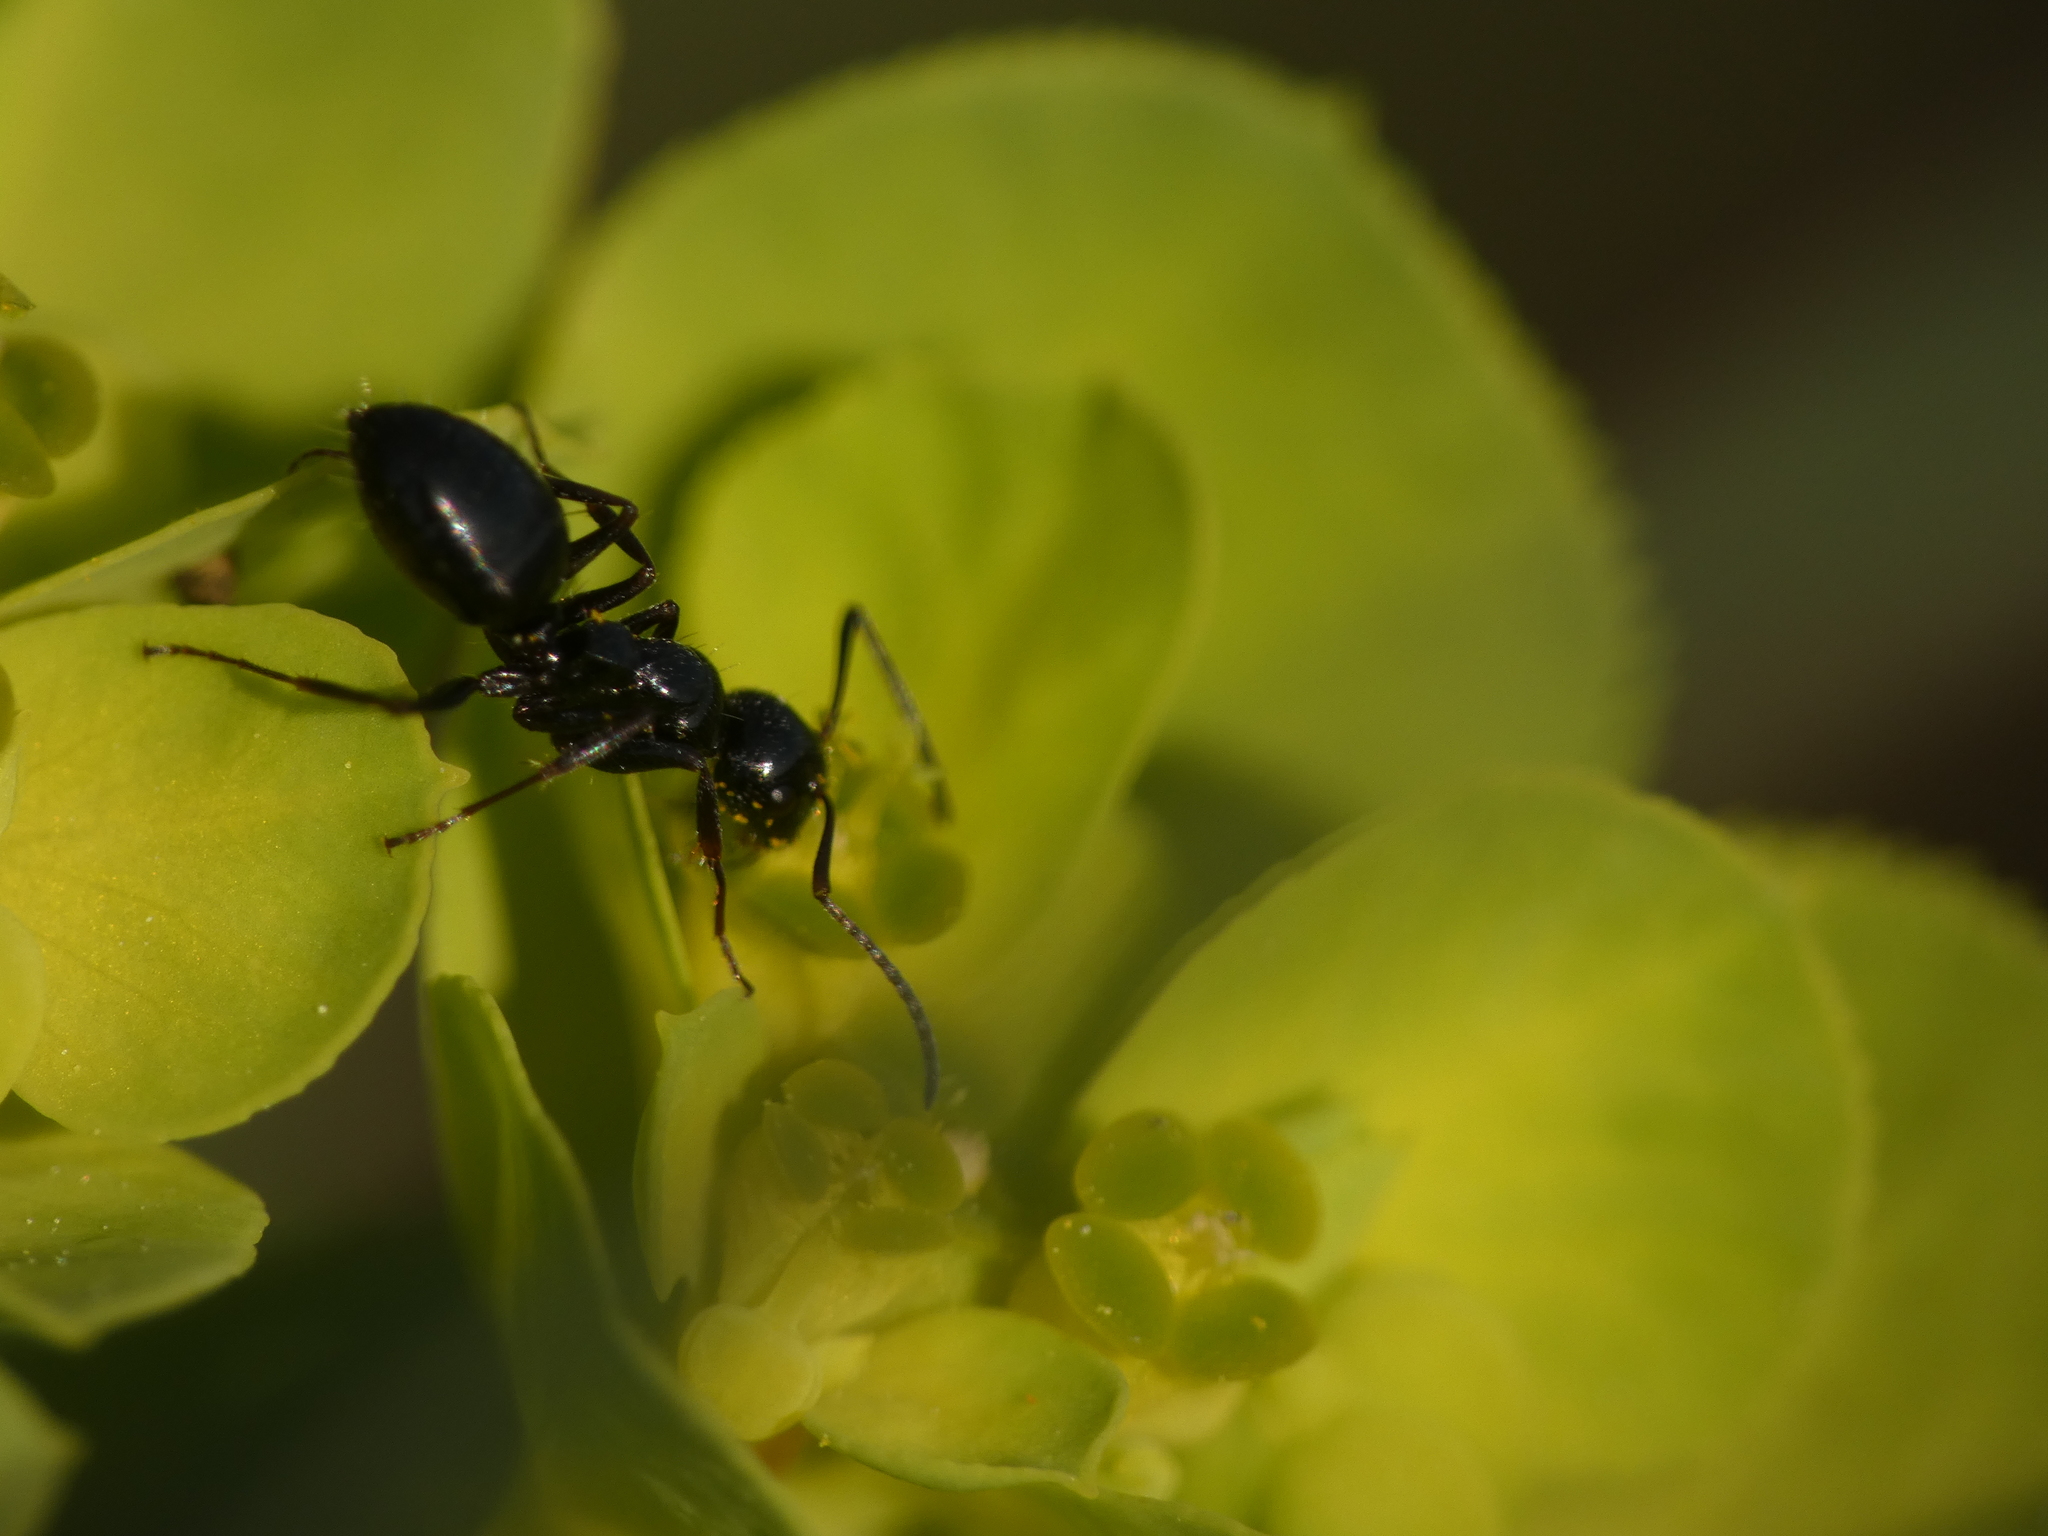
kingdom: Animalia
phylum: Arthropoda
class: Insecta
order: Hymenoptera
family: Formicidae
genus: Camponotus
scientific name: Camponotus aethiops
